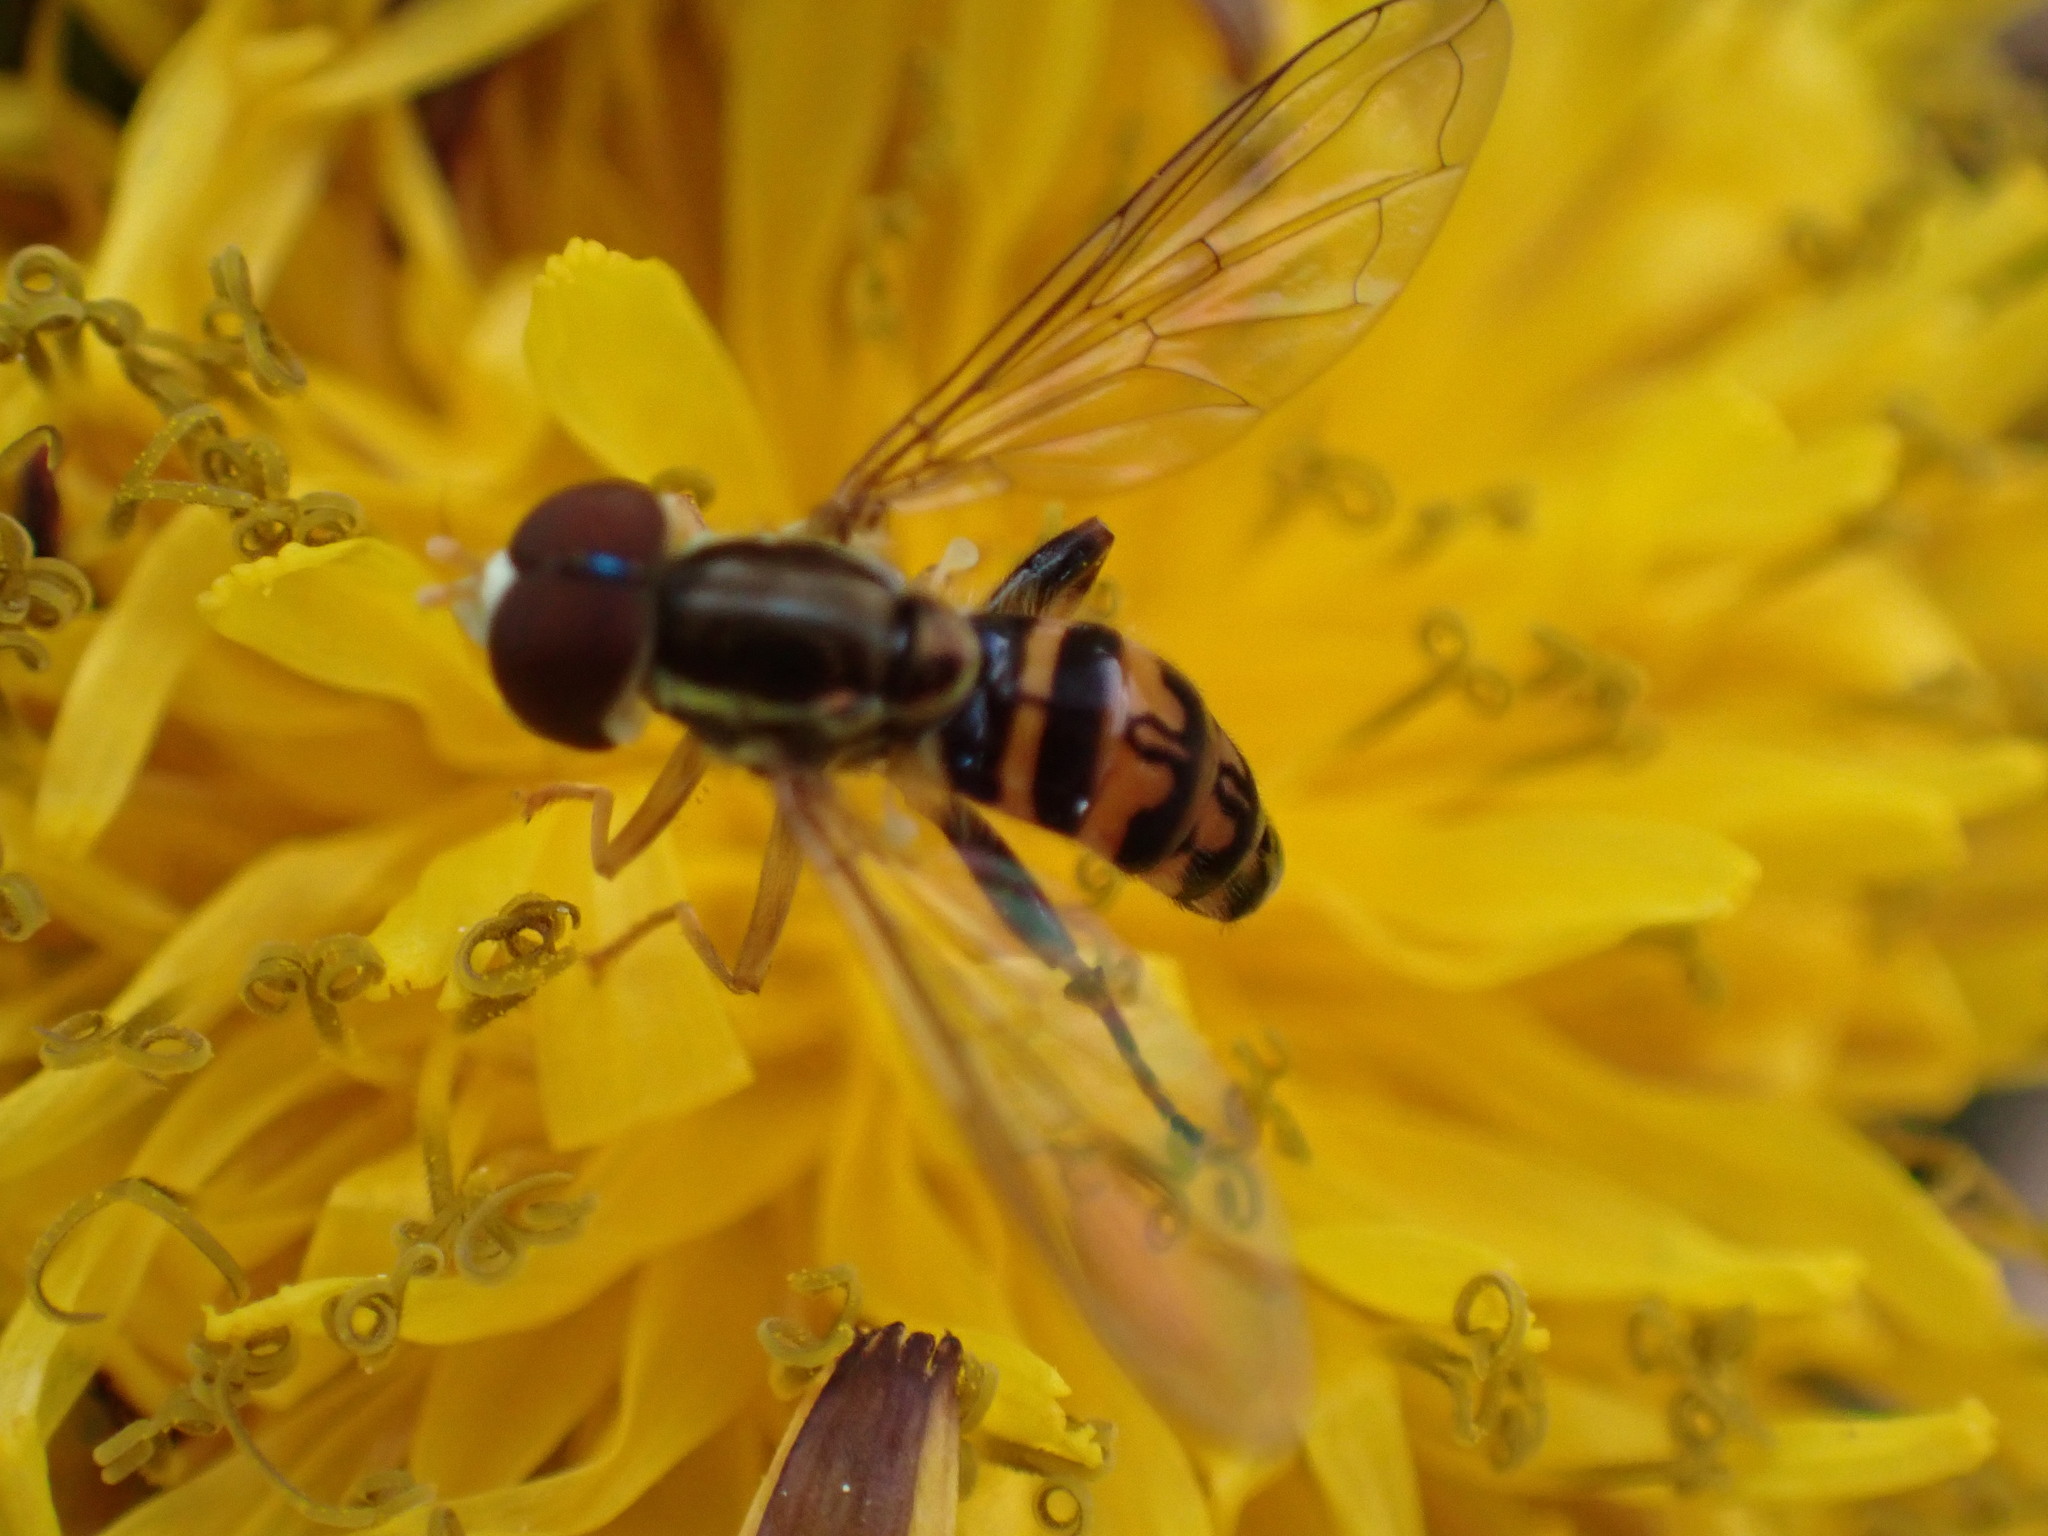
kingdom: Animalia
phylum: Arthropoda
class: Insecta
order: Diptera
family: Syrphidae
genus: Toxomerus
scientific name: Toxomerus geminatus
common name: Eastern calligrapher
